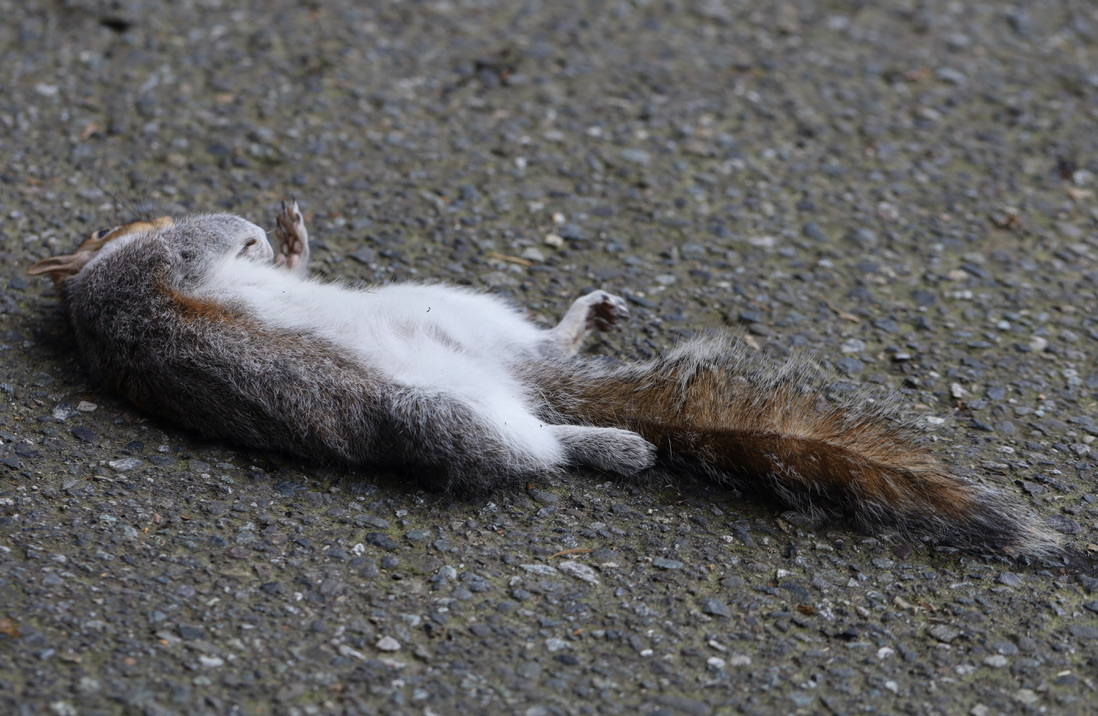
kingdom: Animalia
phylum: Chordata
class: Mammalia
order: Rodentia
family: Sciuridae
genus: Sciurus
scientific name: Sciurus carolinensis
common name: Eastern gray squirrel
